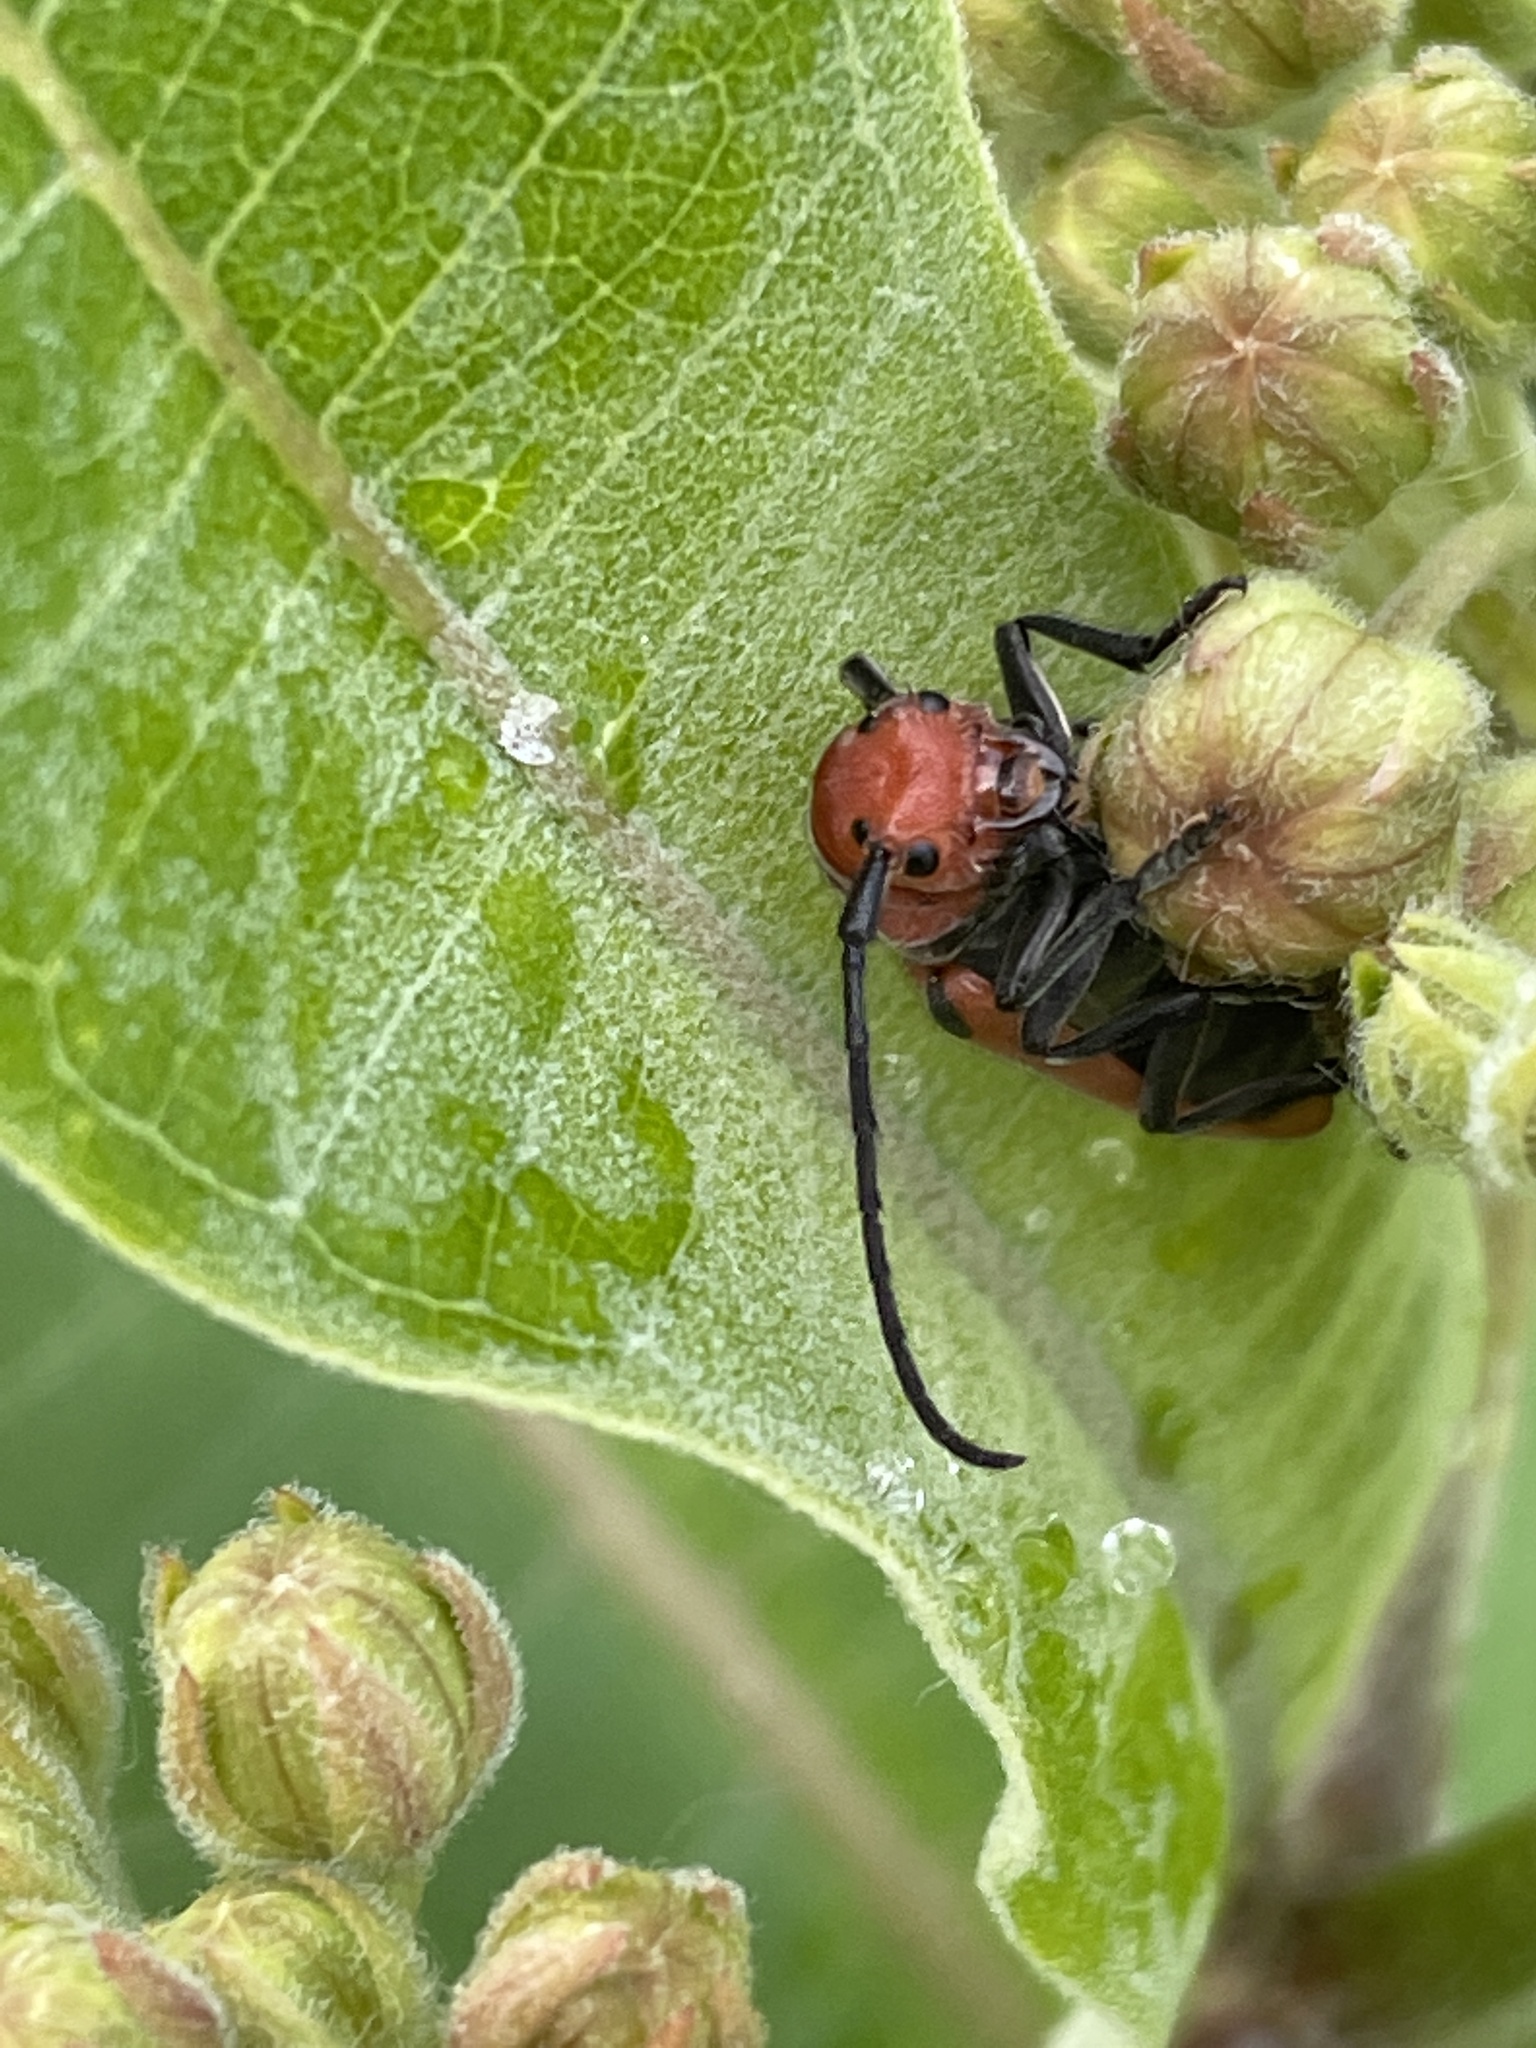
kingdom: Animalia
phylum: Arthropoda
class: Insecta
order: Coleoptera
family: Cerambycidae
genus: Tetraopes
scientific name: Tetraopes tetrophthalmus
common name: Red milkweed beetle
